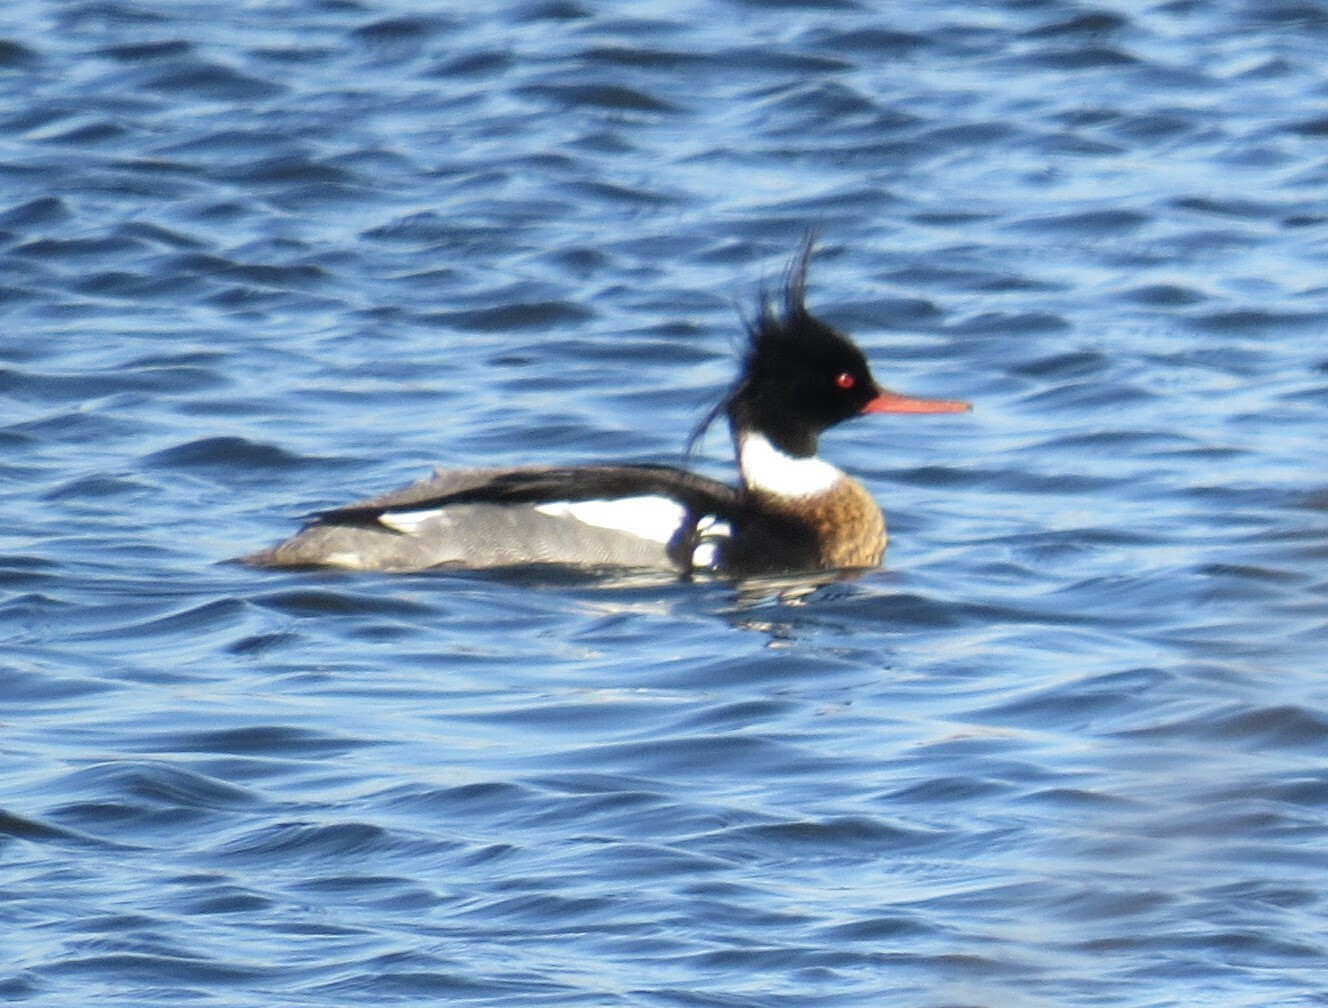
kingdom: Animalia
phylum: Chordata
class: Aves
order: Anseriformes
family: Anatidae
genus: Mergus
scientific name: Mergus serrator
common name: Red-breasted merganser
